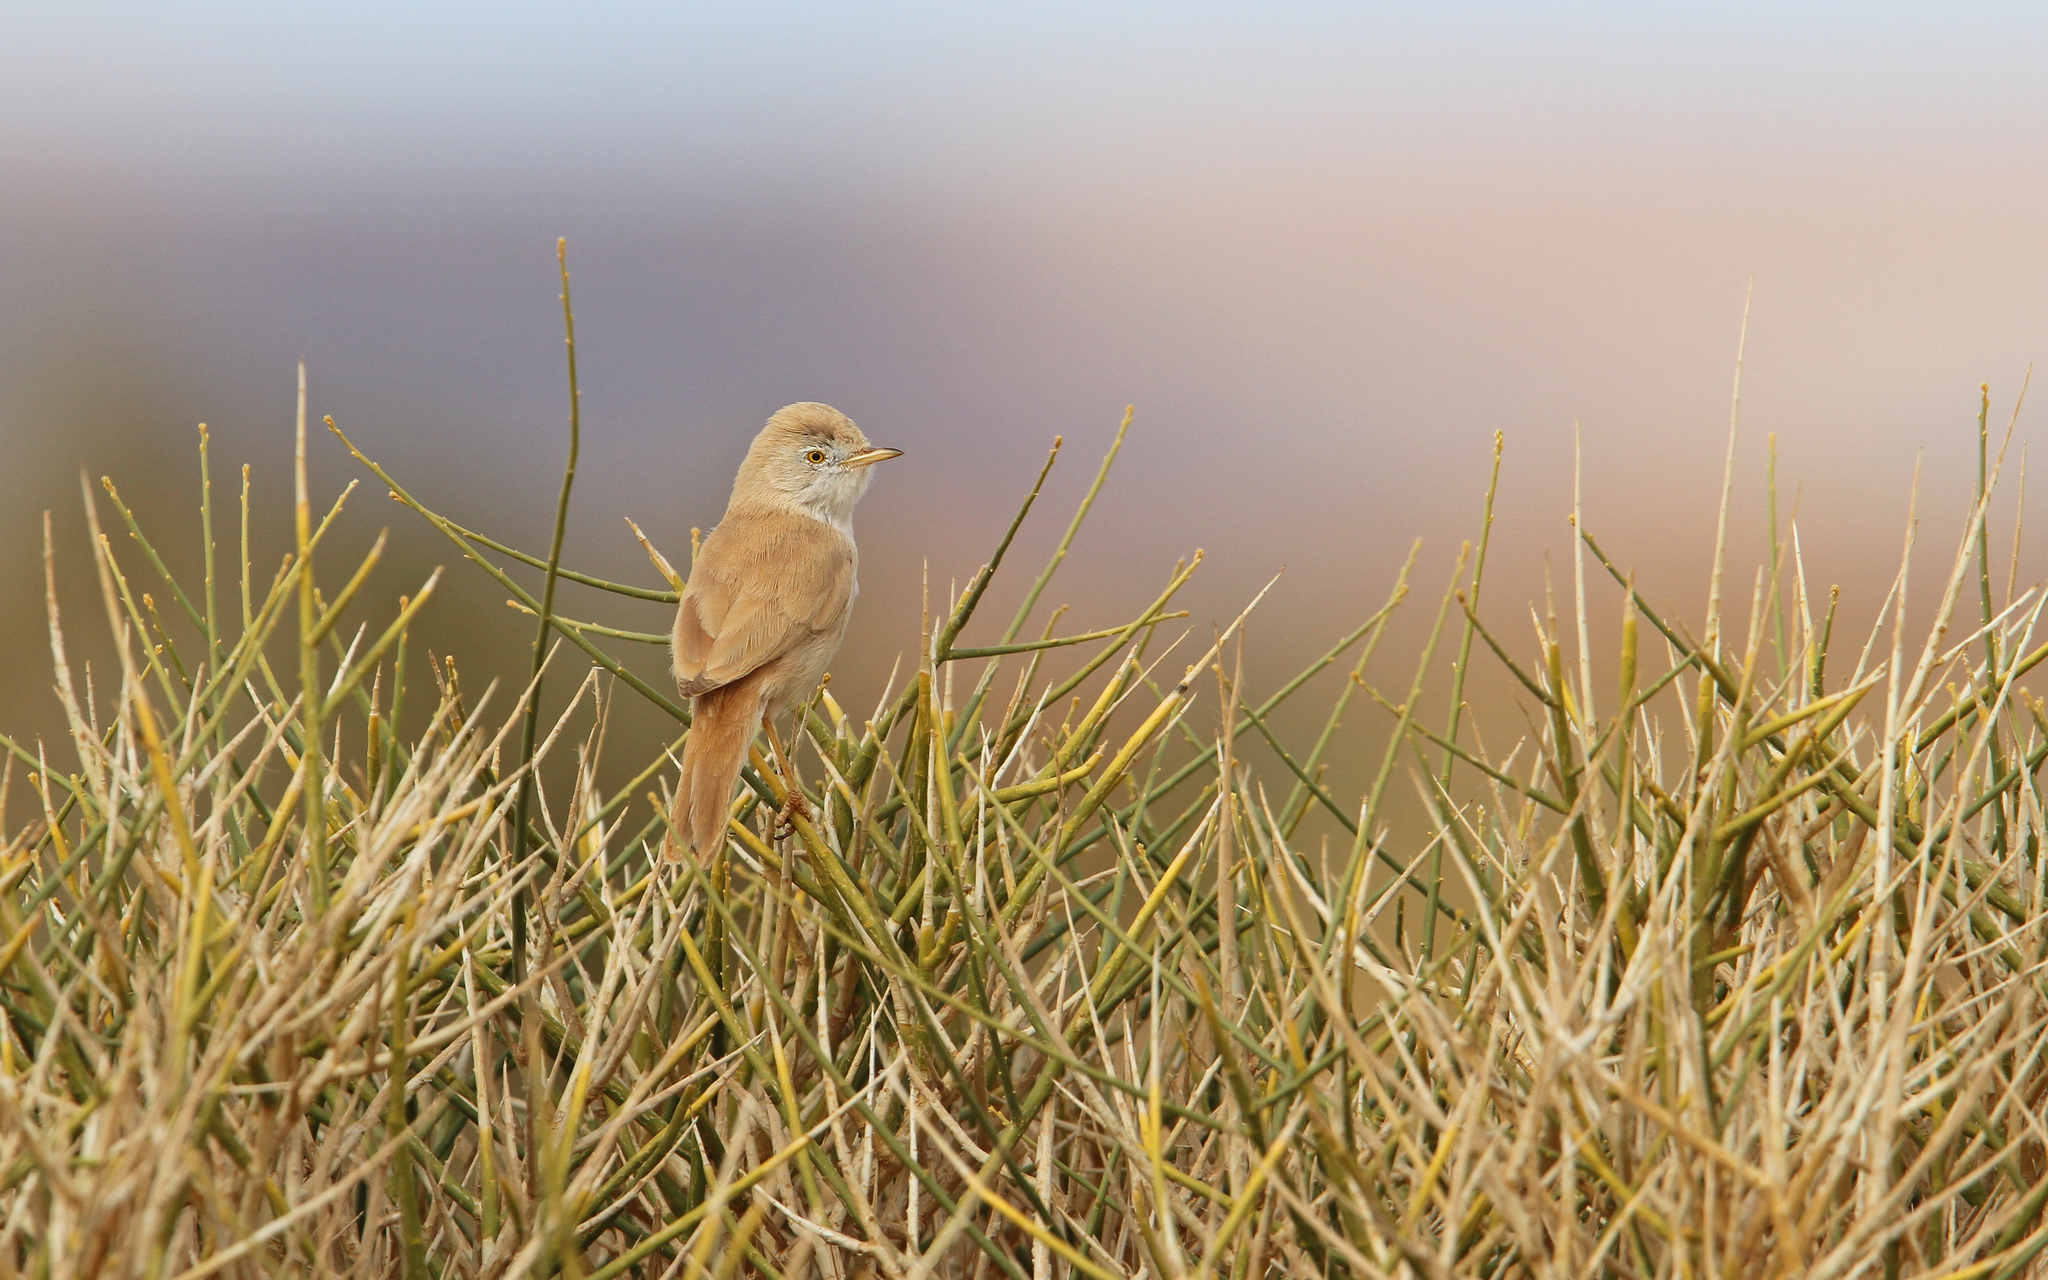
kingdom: Animalia
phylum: Chordata
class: Aves
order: Passeriformes
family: Sylviidae
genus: Sylvia
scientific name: Sylvia deserti
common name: African desert warbler
